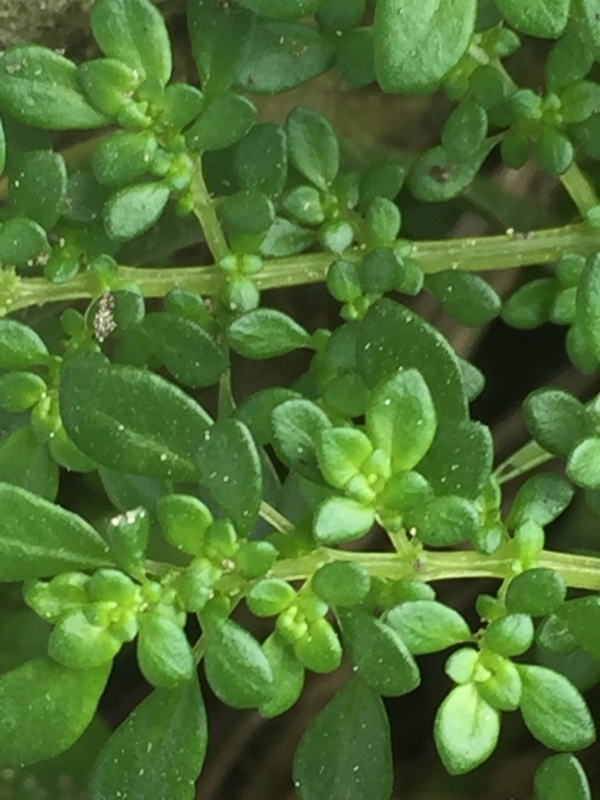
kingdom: Plantae
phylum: Tracheophyta
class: Magnoliopsida
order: Rosales
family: Urticaceae
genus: Pilea
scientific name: Pilea microphylla
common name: Artillery-plant
